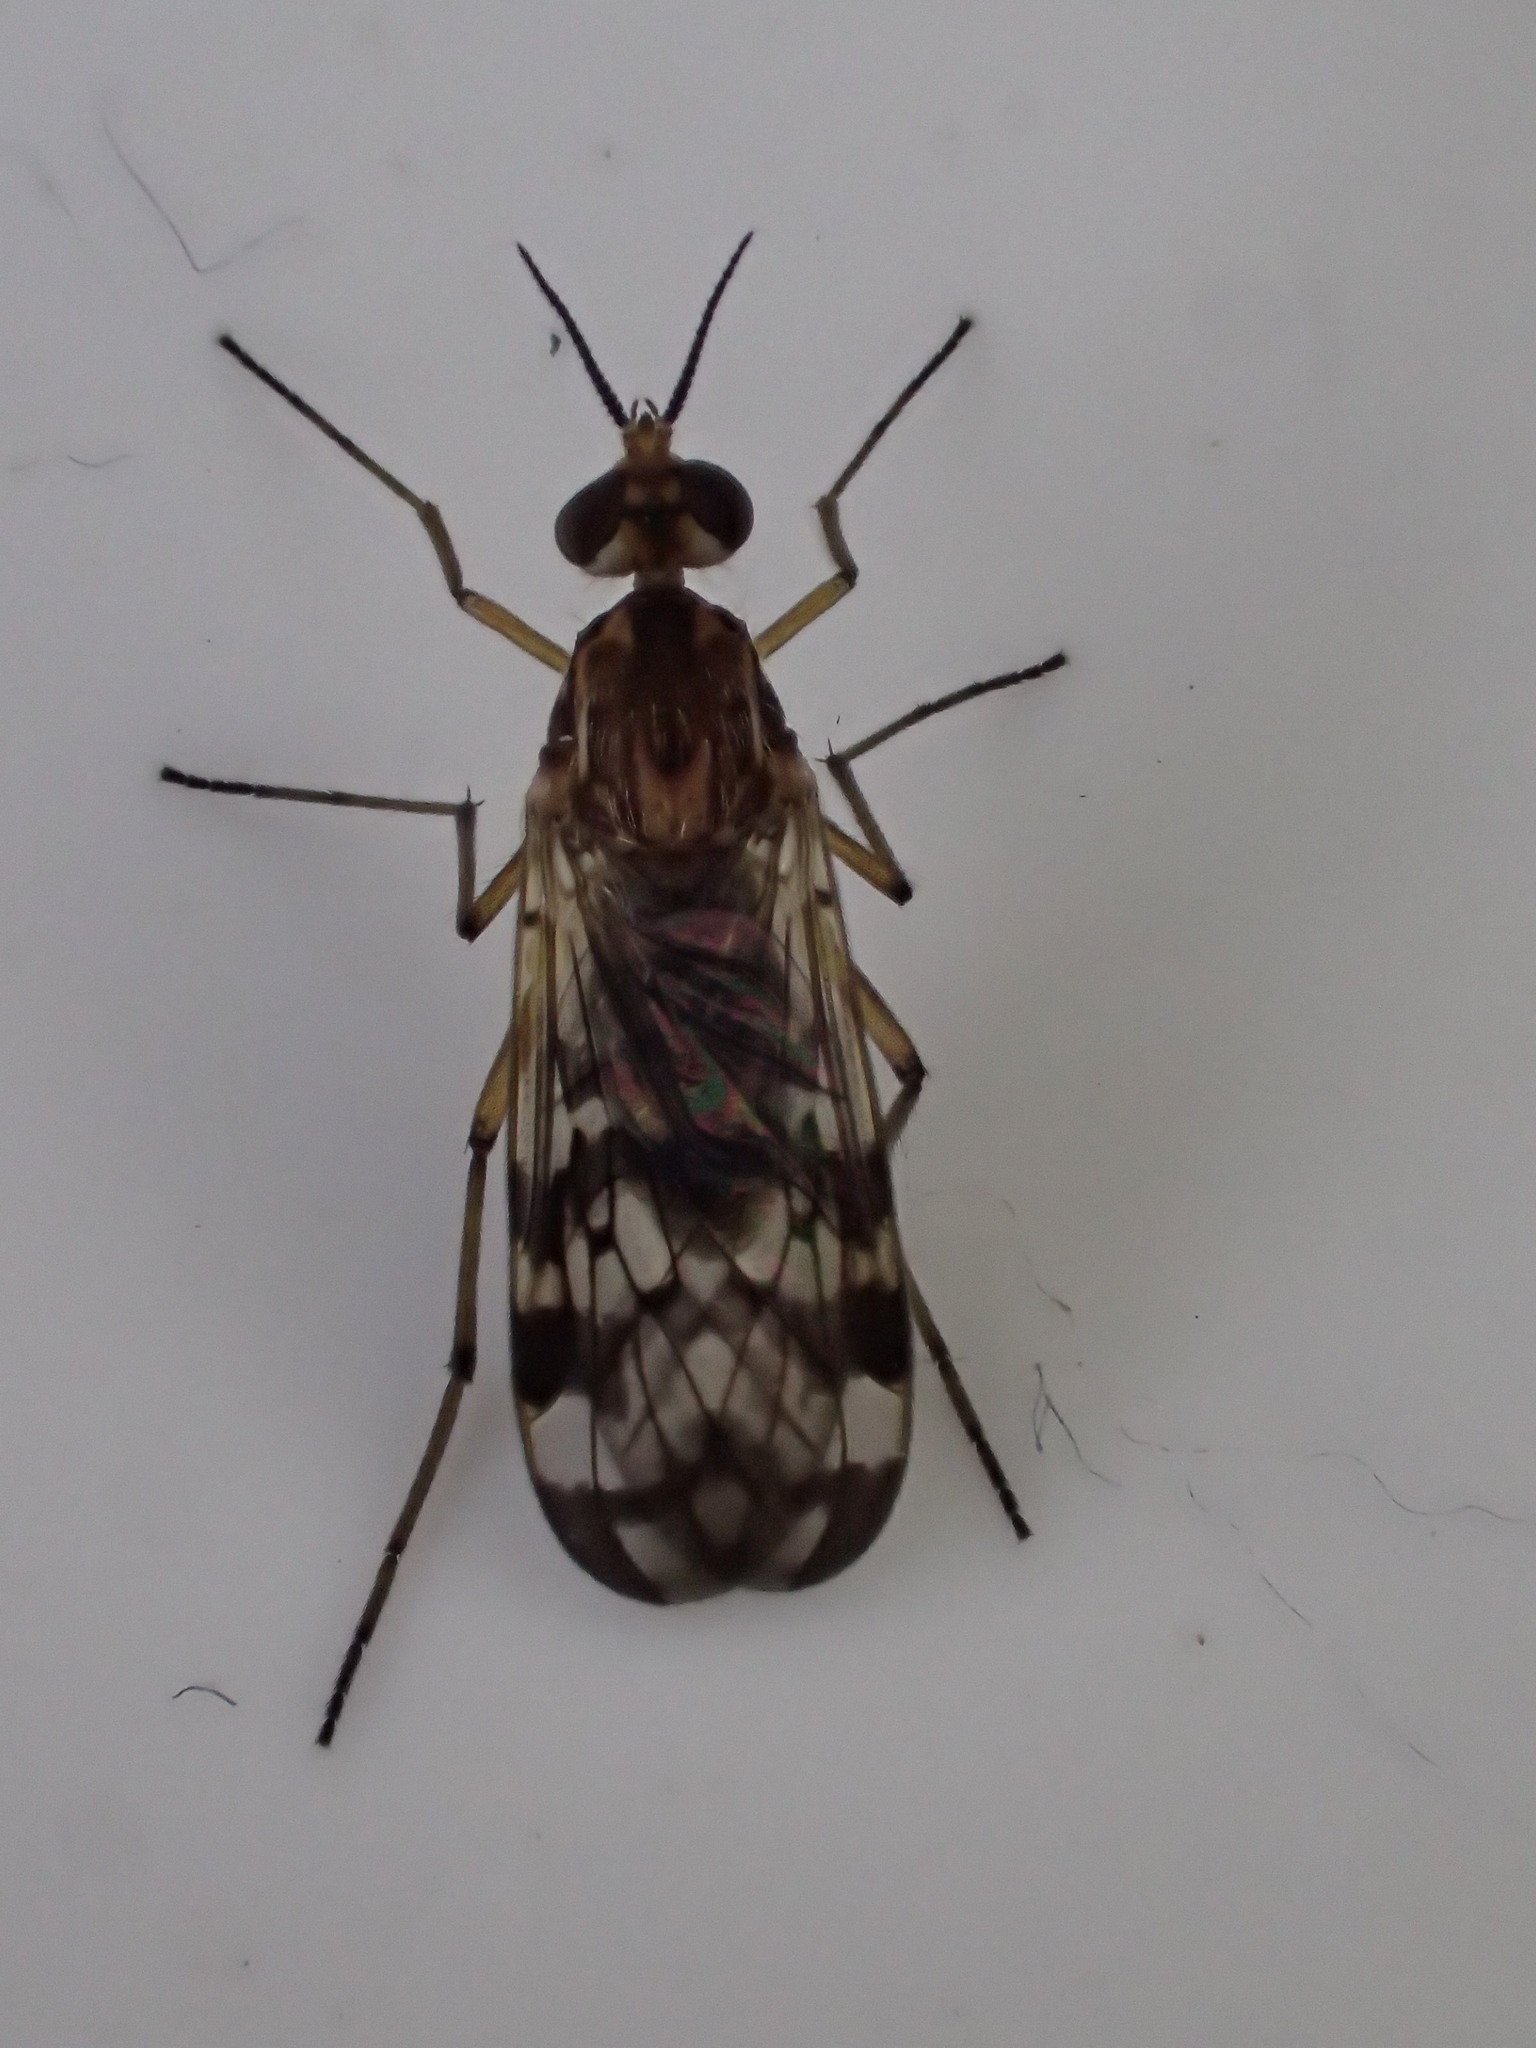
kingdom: Animalia
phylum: Arthropoda
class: Insecta
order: Diptera
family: Anisopodidae
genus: Sylvicola
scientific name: Sylvicola dubius
